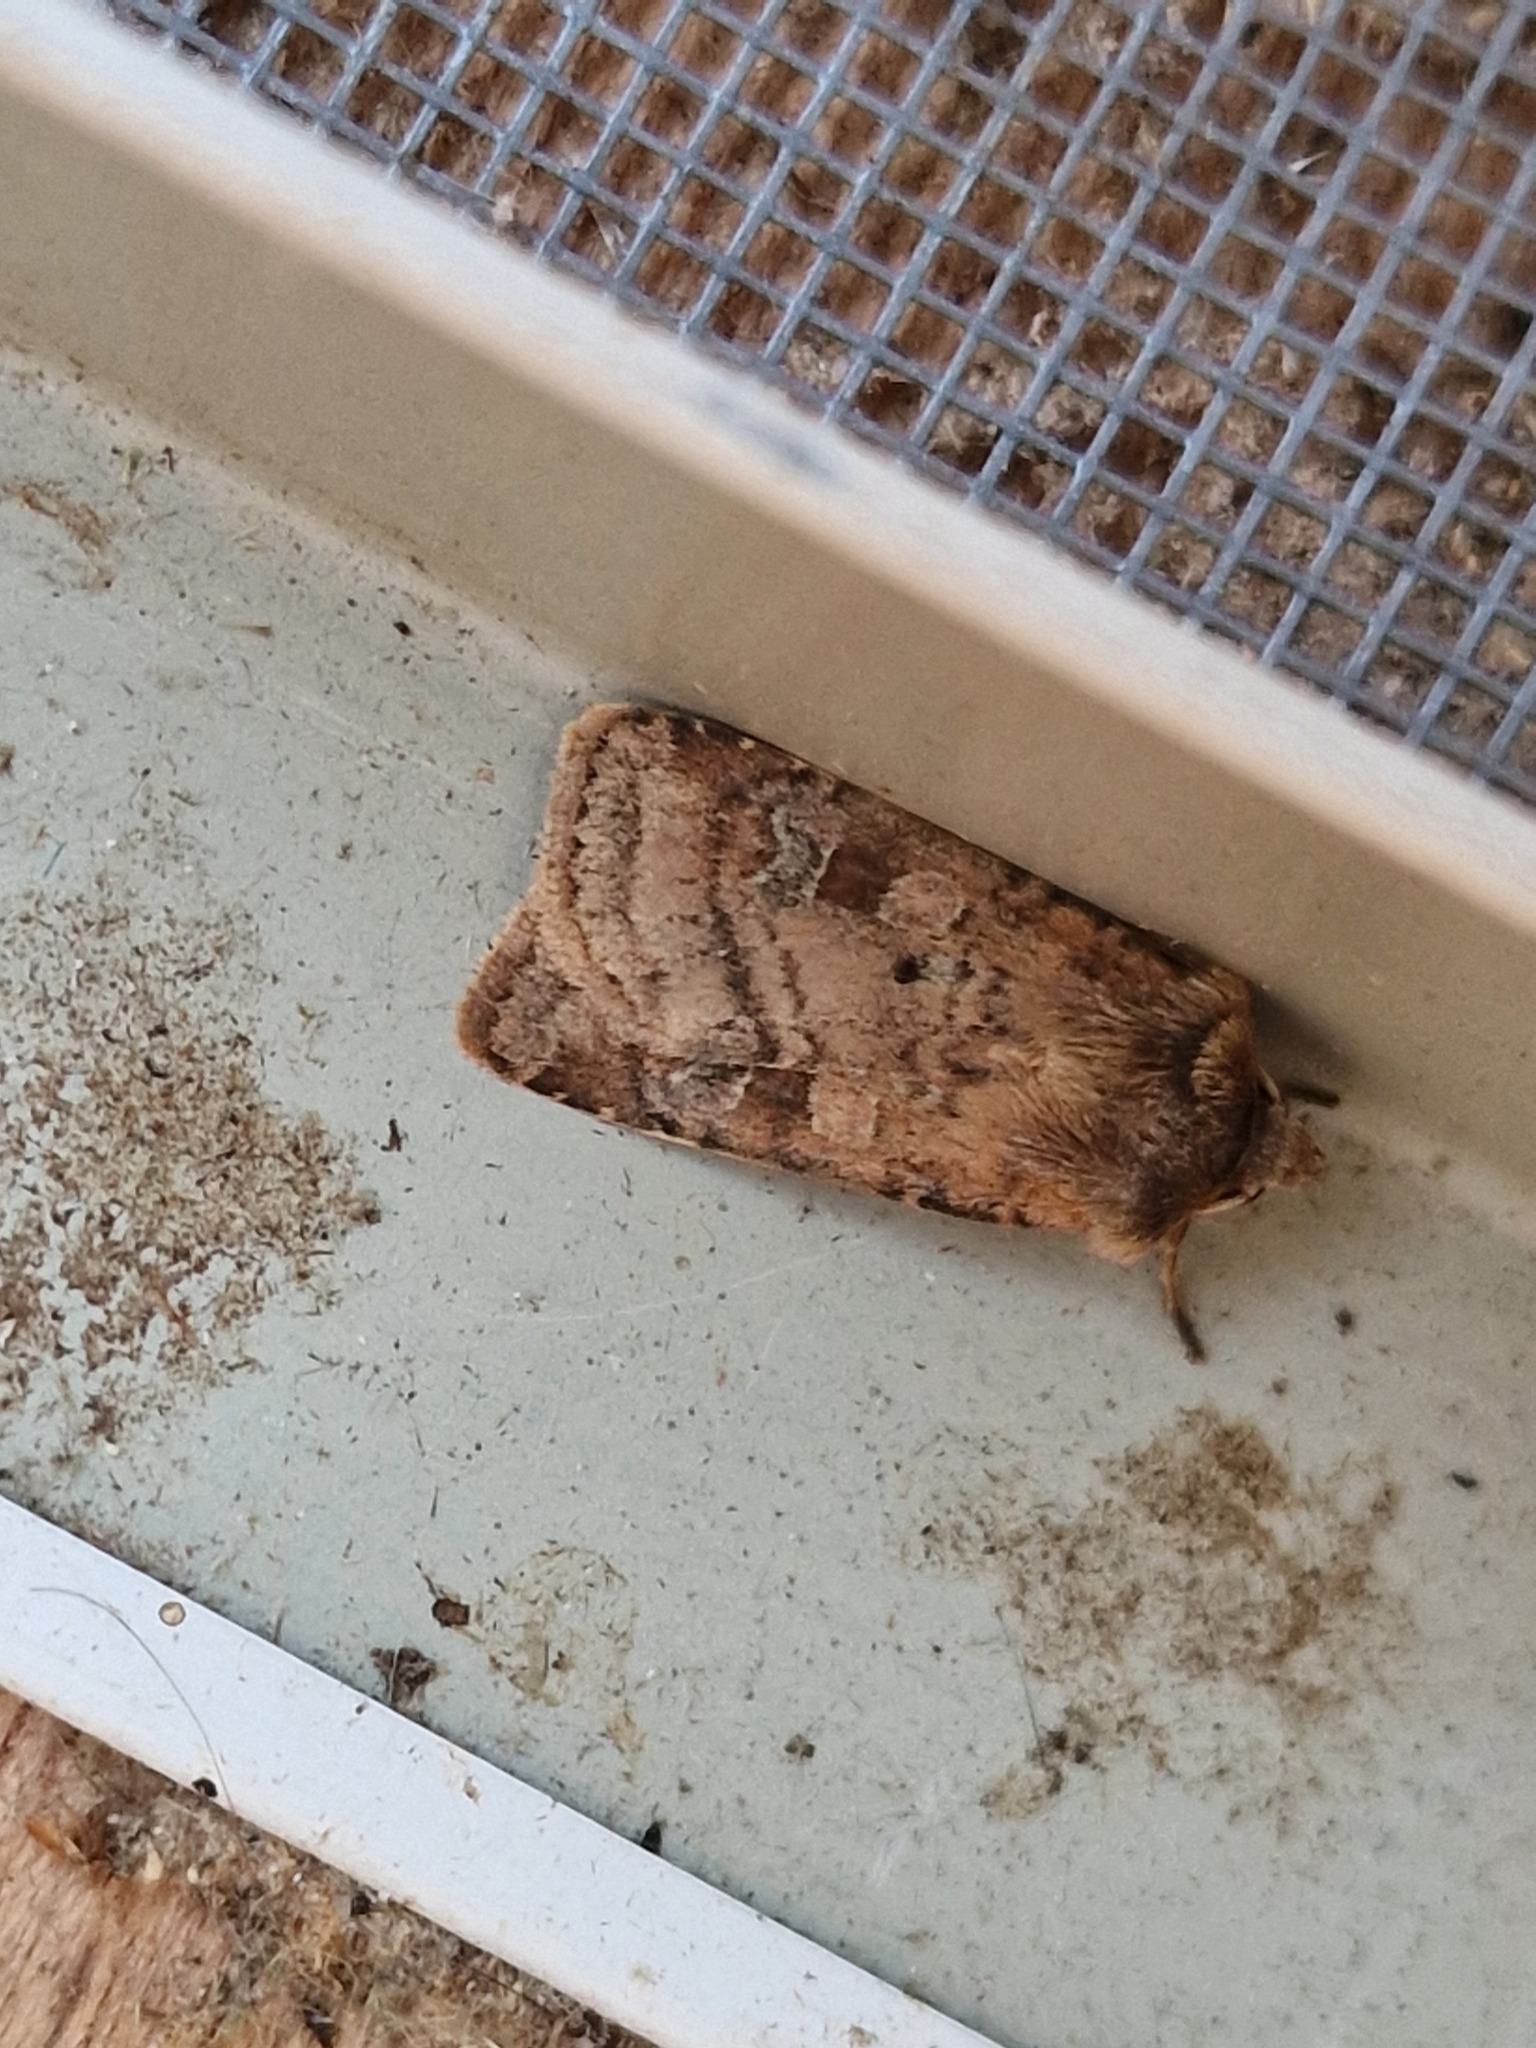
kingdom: Animalia
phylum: Arthropoda
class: Insecta
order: Lepidoptera
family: Noctuidae
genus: Diarsia
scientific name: Diarsia rubi
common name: Small square-spot
